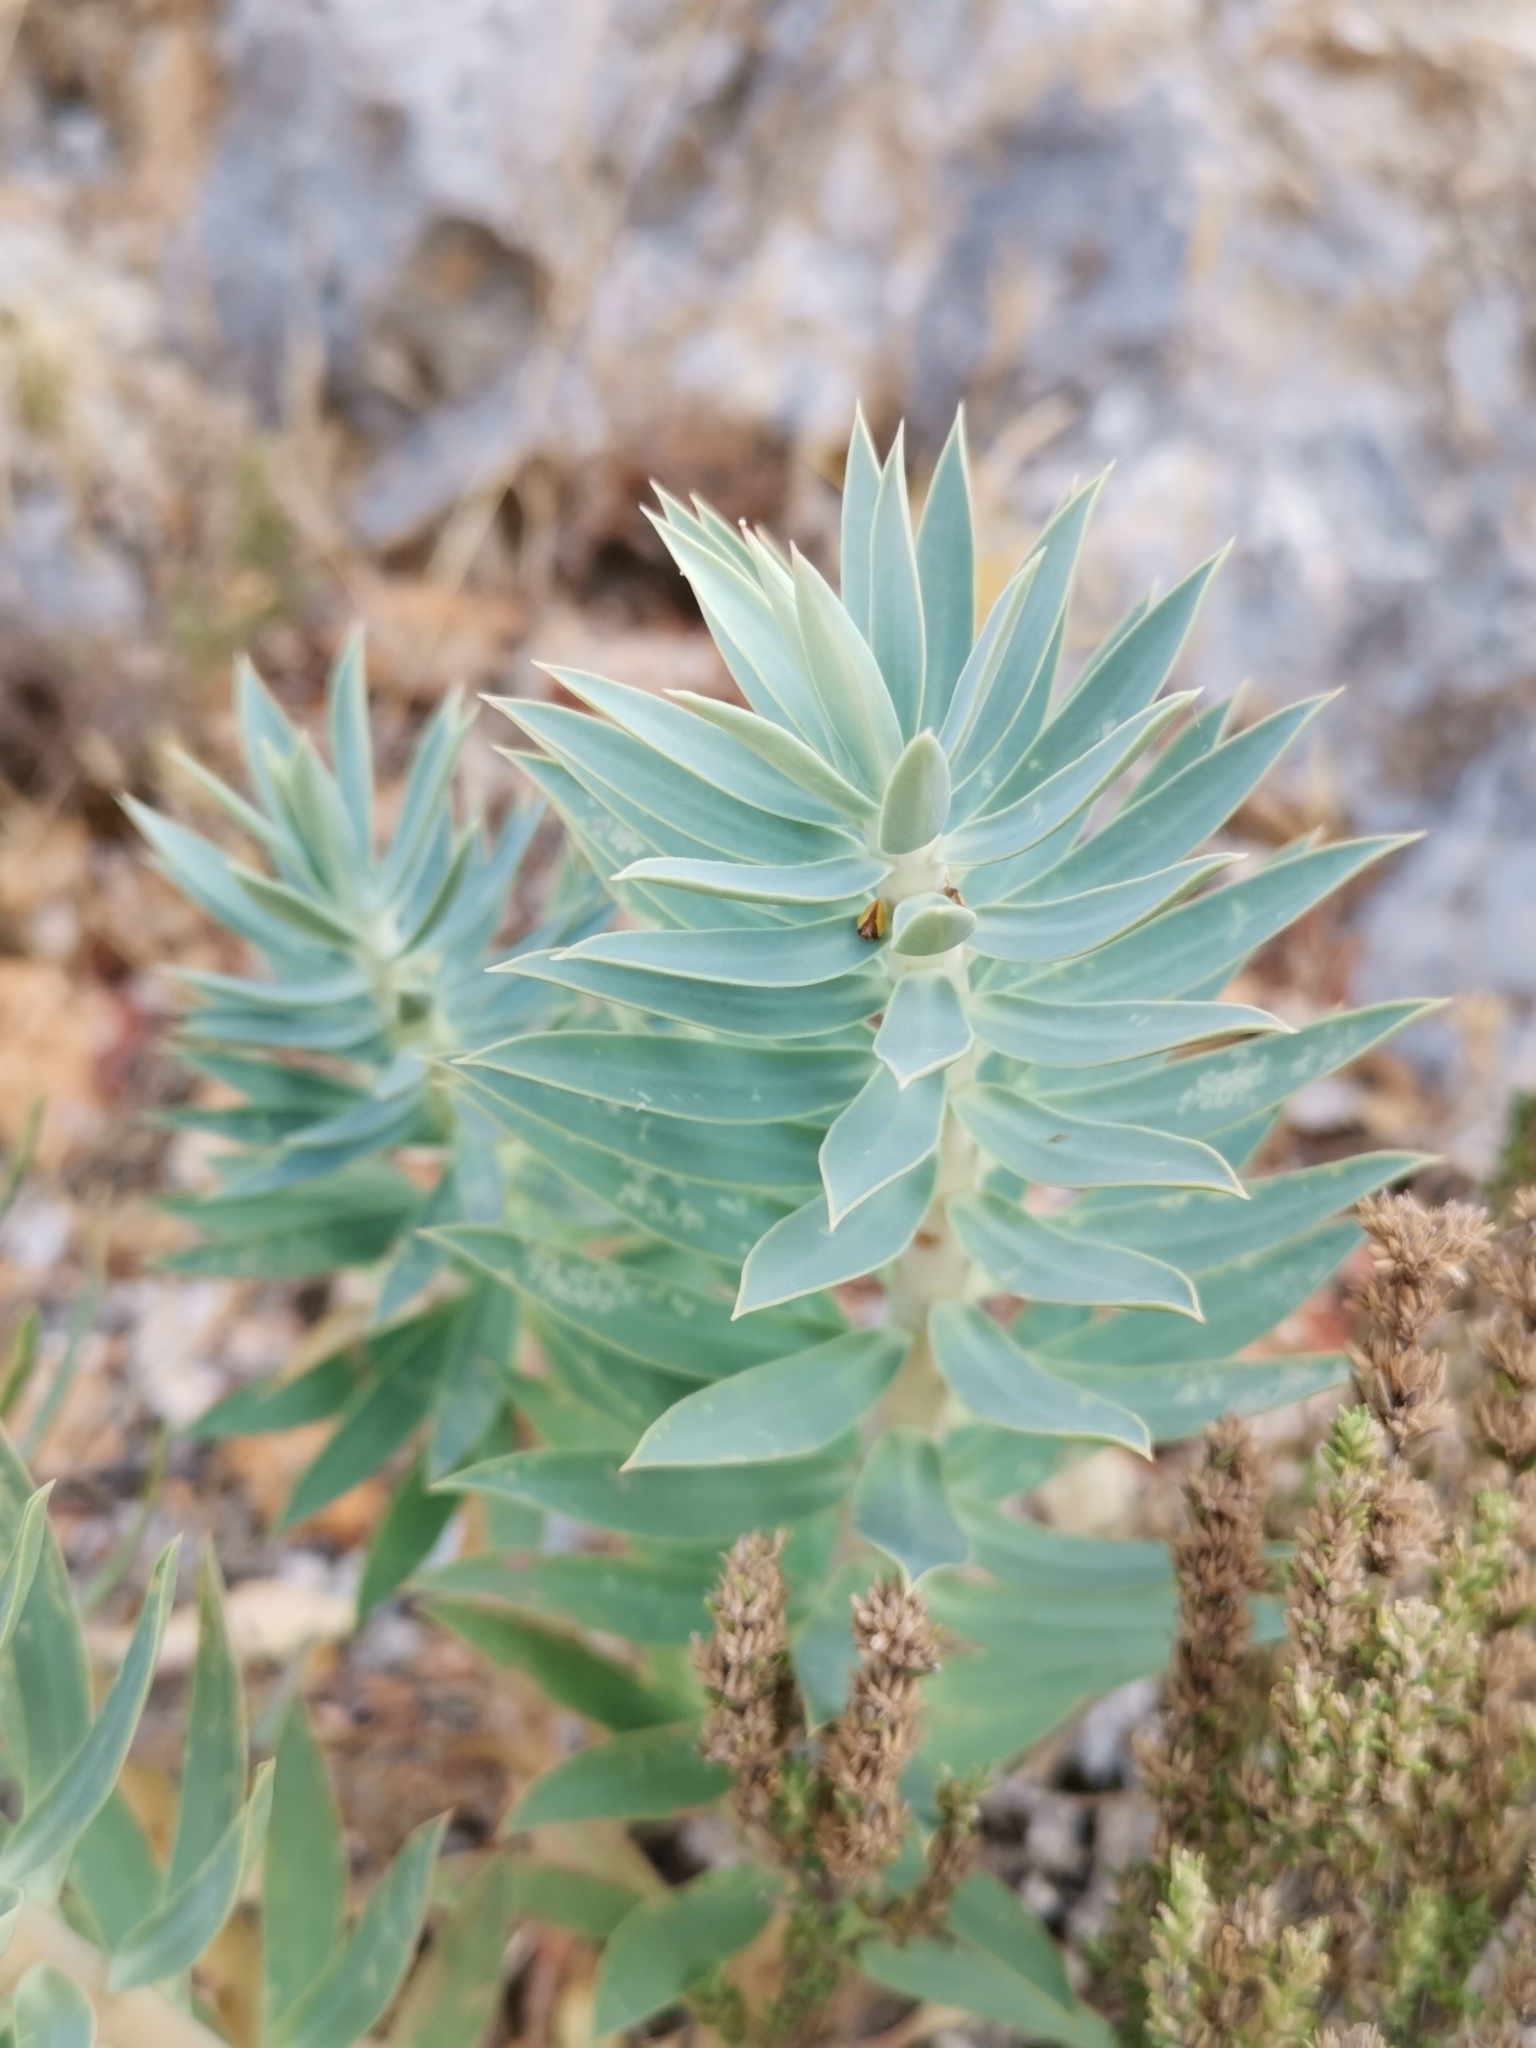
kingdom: Plantae
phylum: Tracheophyta
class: Magnoliopsida
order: Malpighiales
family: Euphorbiaceae
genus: Euphorbia
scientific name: Euphorbia rigida
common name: Upright myrtle spurge
